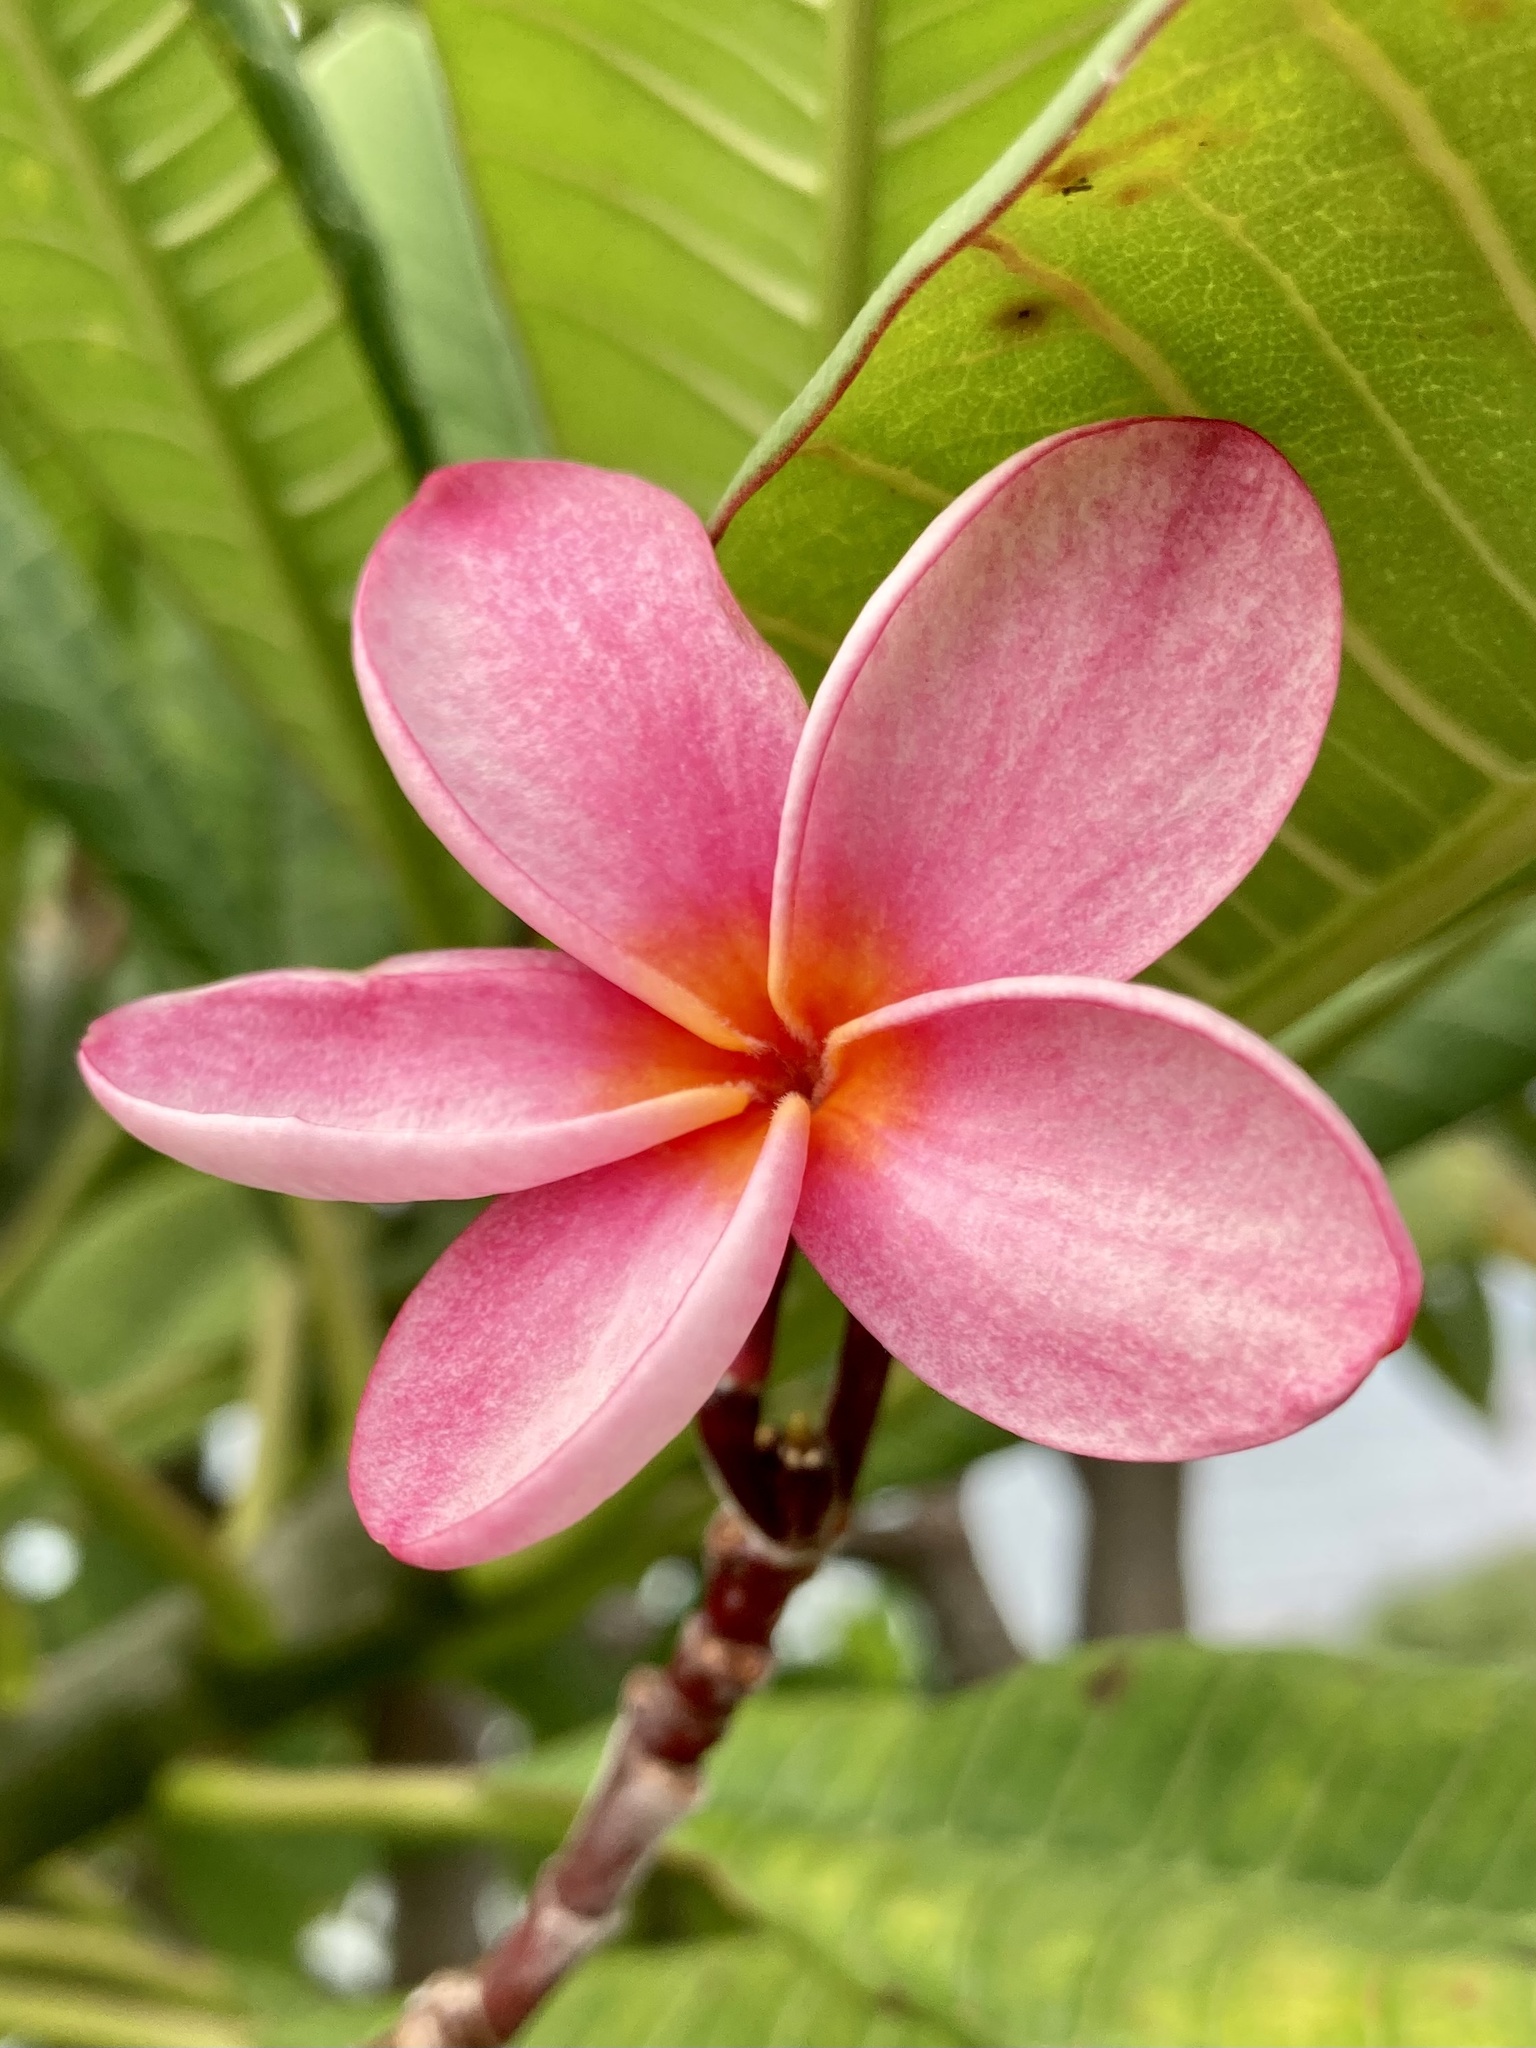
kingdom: Plantae
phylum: Tracheophyta
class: Magnoliopsida
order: Gentianales
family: Apocynaceae
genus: Plumeria
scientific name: Plumeria rubra
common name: Pagoda-tree
